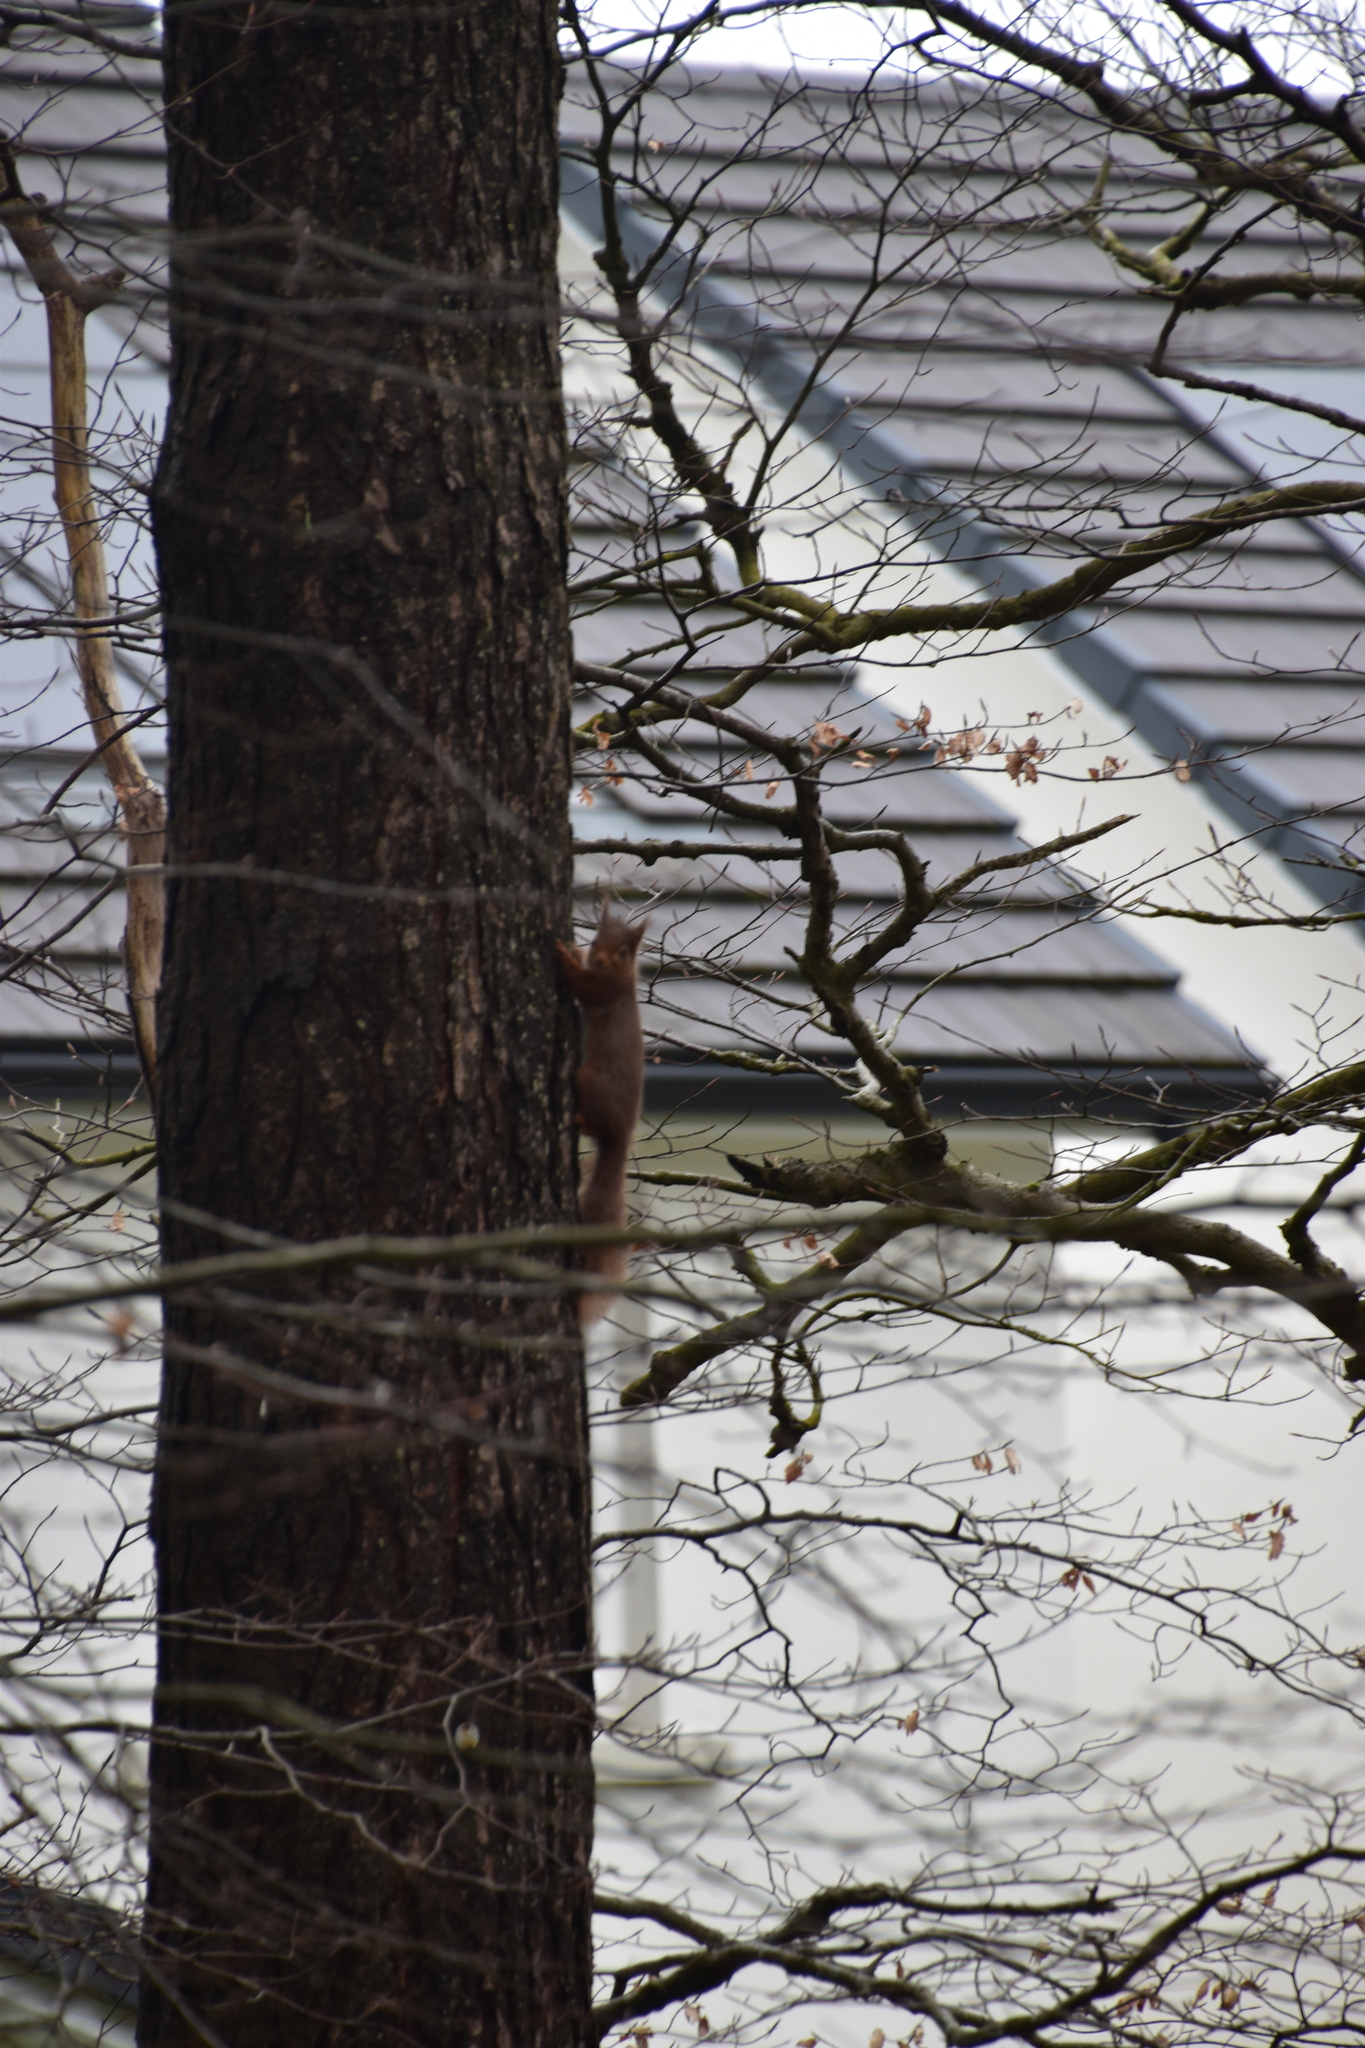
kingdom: Animalia
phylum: Chordata
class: Mammalia
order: Rodentia
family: Sciuridae
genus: Sciurus
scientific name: Sciurus vulgaris
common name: Eurasian red squirrel
